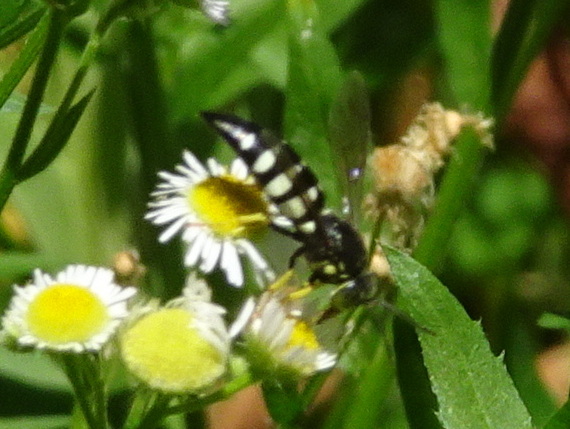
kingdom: Animalia
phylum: Arthropoda
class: Insecta
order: Hymenoptera
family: Crabronidae
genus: Bicyrtes
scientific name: Bicyrtes quadrifasciatus
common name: Four-banded stink bug hunter wasp
